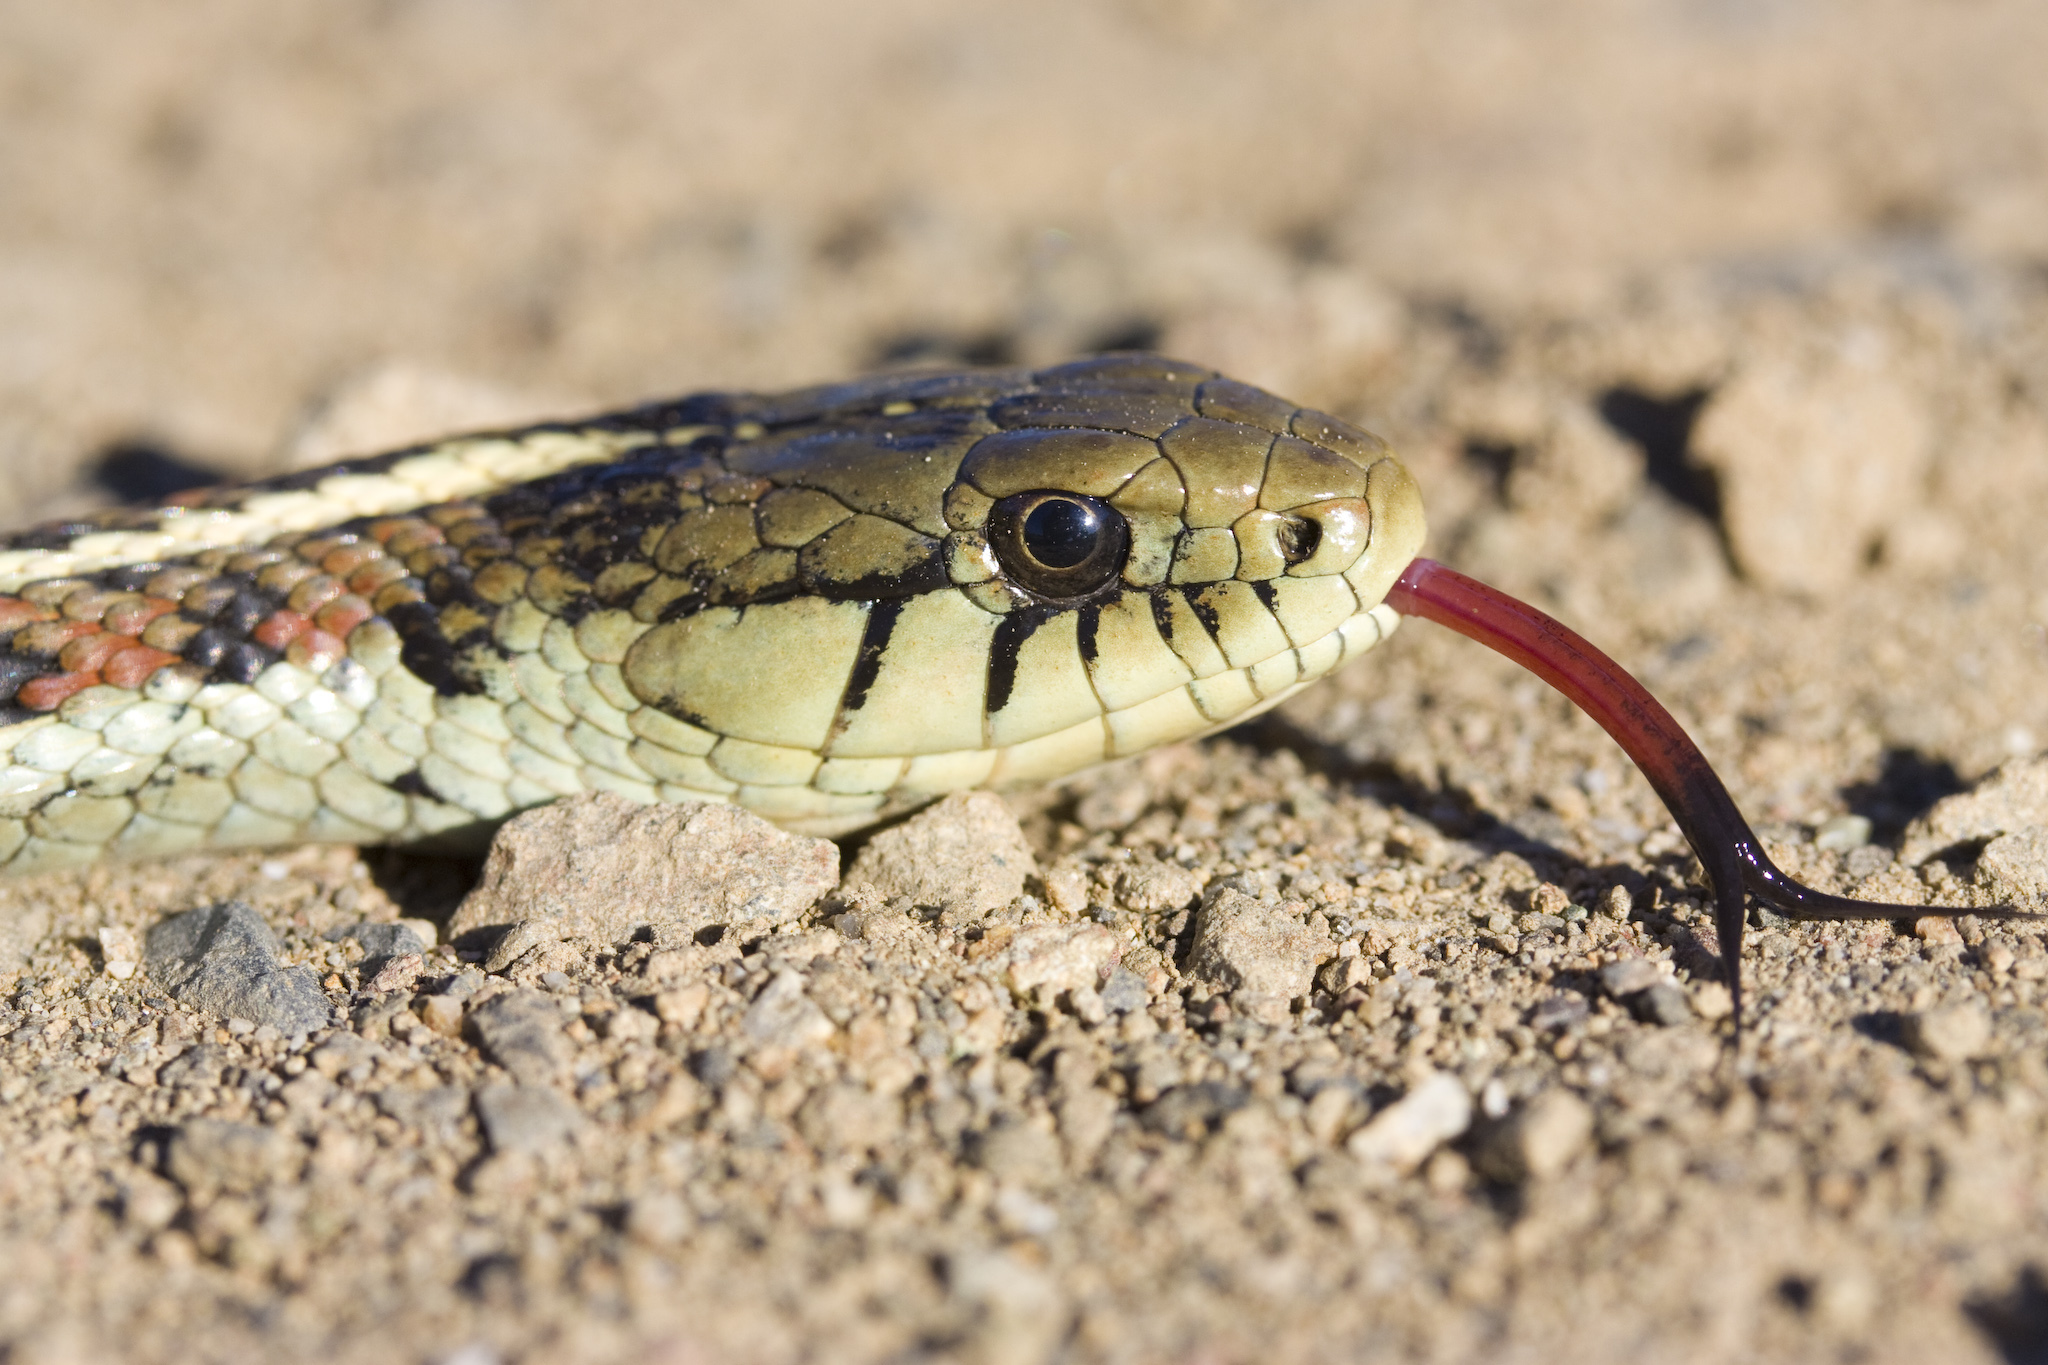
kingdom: Animalia
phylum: Chordata
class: Squamata
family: Colubridae
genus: Thamnophis
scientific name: Thamnophis elegans
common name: Western terrestrial garter snake
